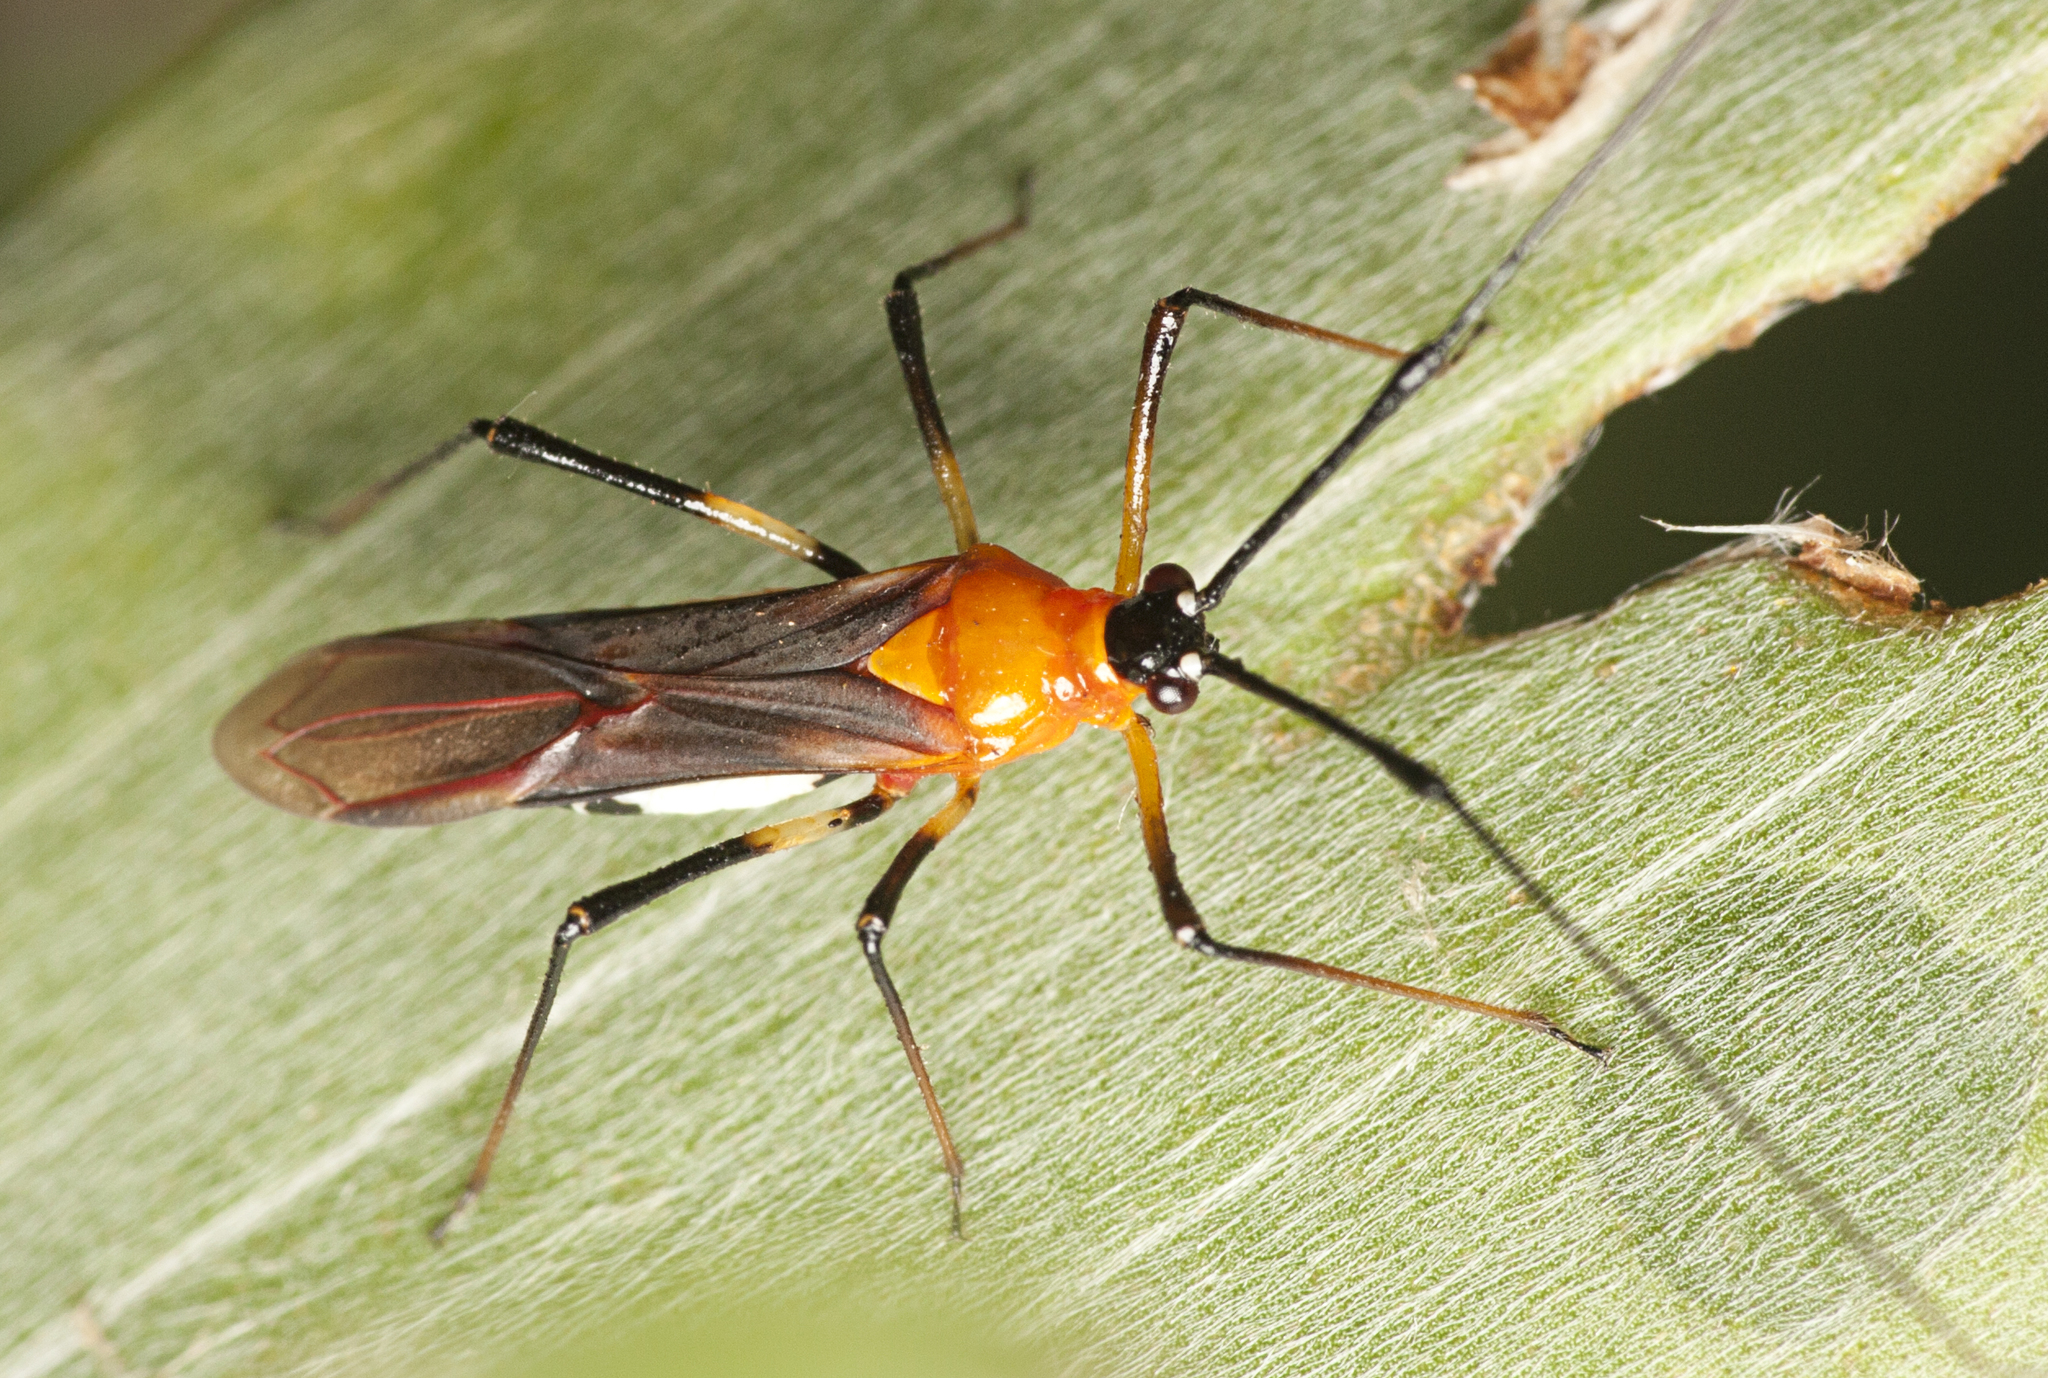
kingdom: Animalia
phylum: Arthropoda
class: Insecta
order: Hemiptera
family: Miridae
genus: Ragwelellus
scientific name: Ragwelellus suspectus
